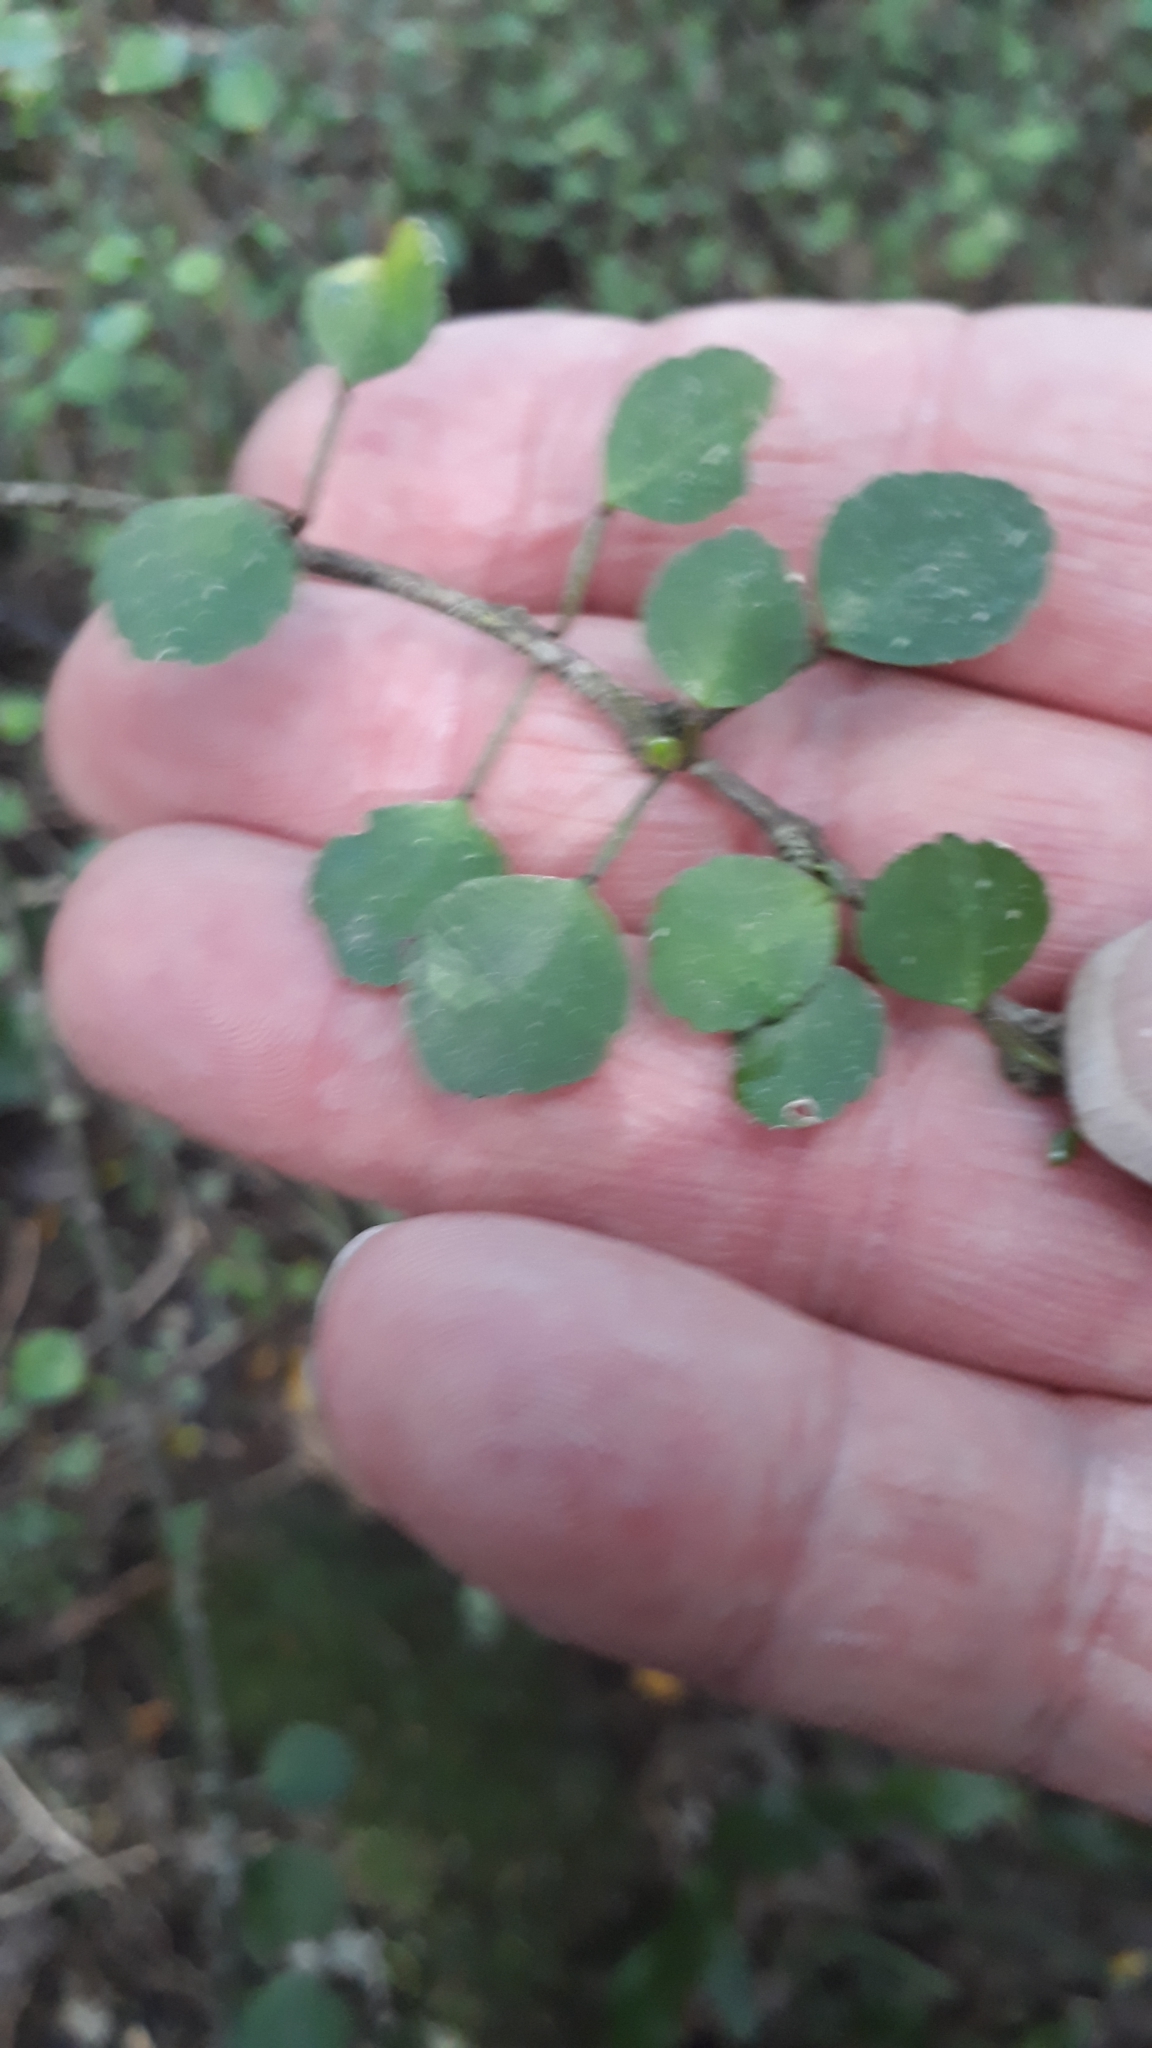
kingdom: Plantae
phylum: Tracheophyta
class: Magnoliopsida
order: Gentianales
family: Rubiaceae
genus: Coprosma
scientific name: Coprosma rhamnoides
